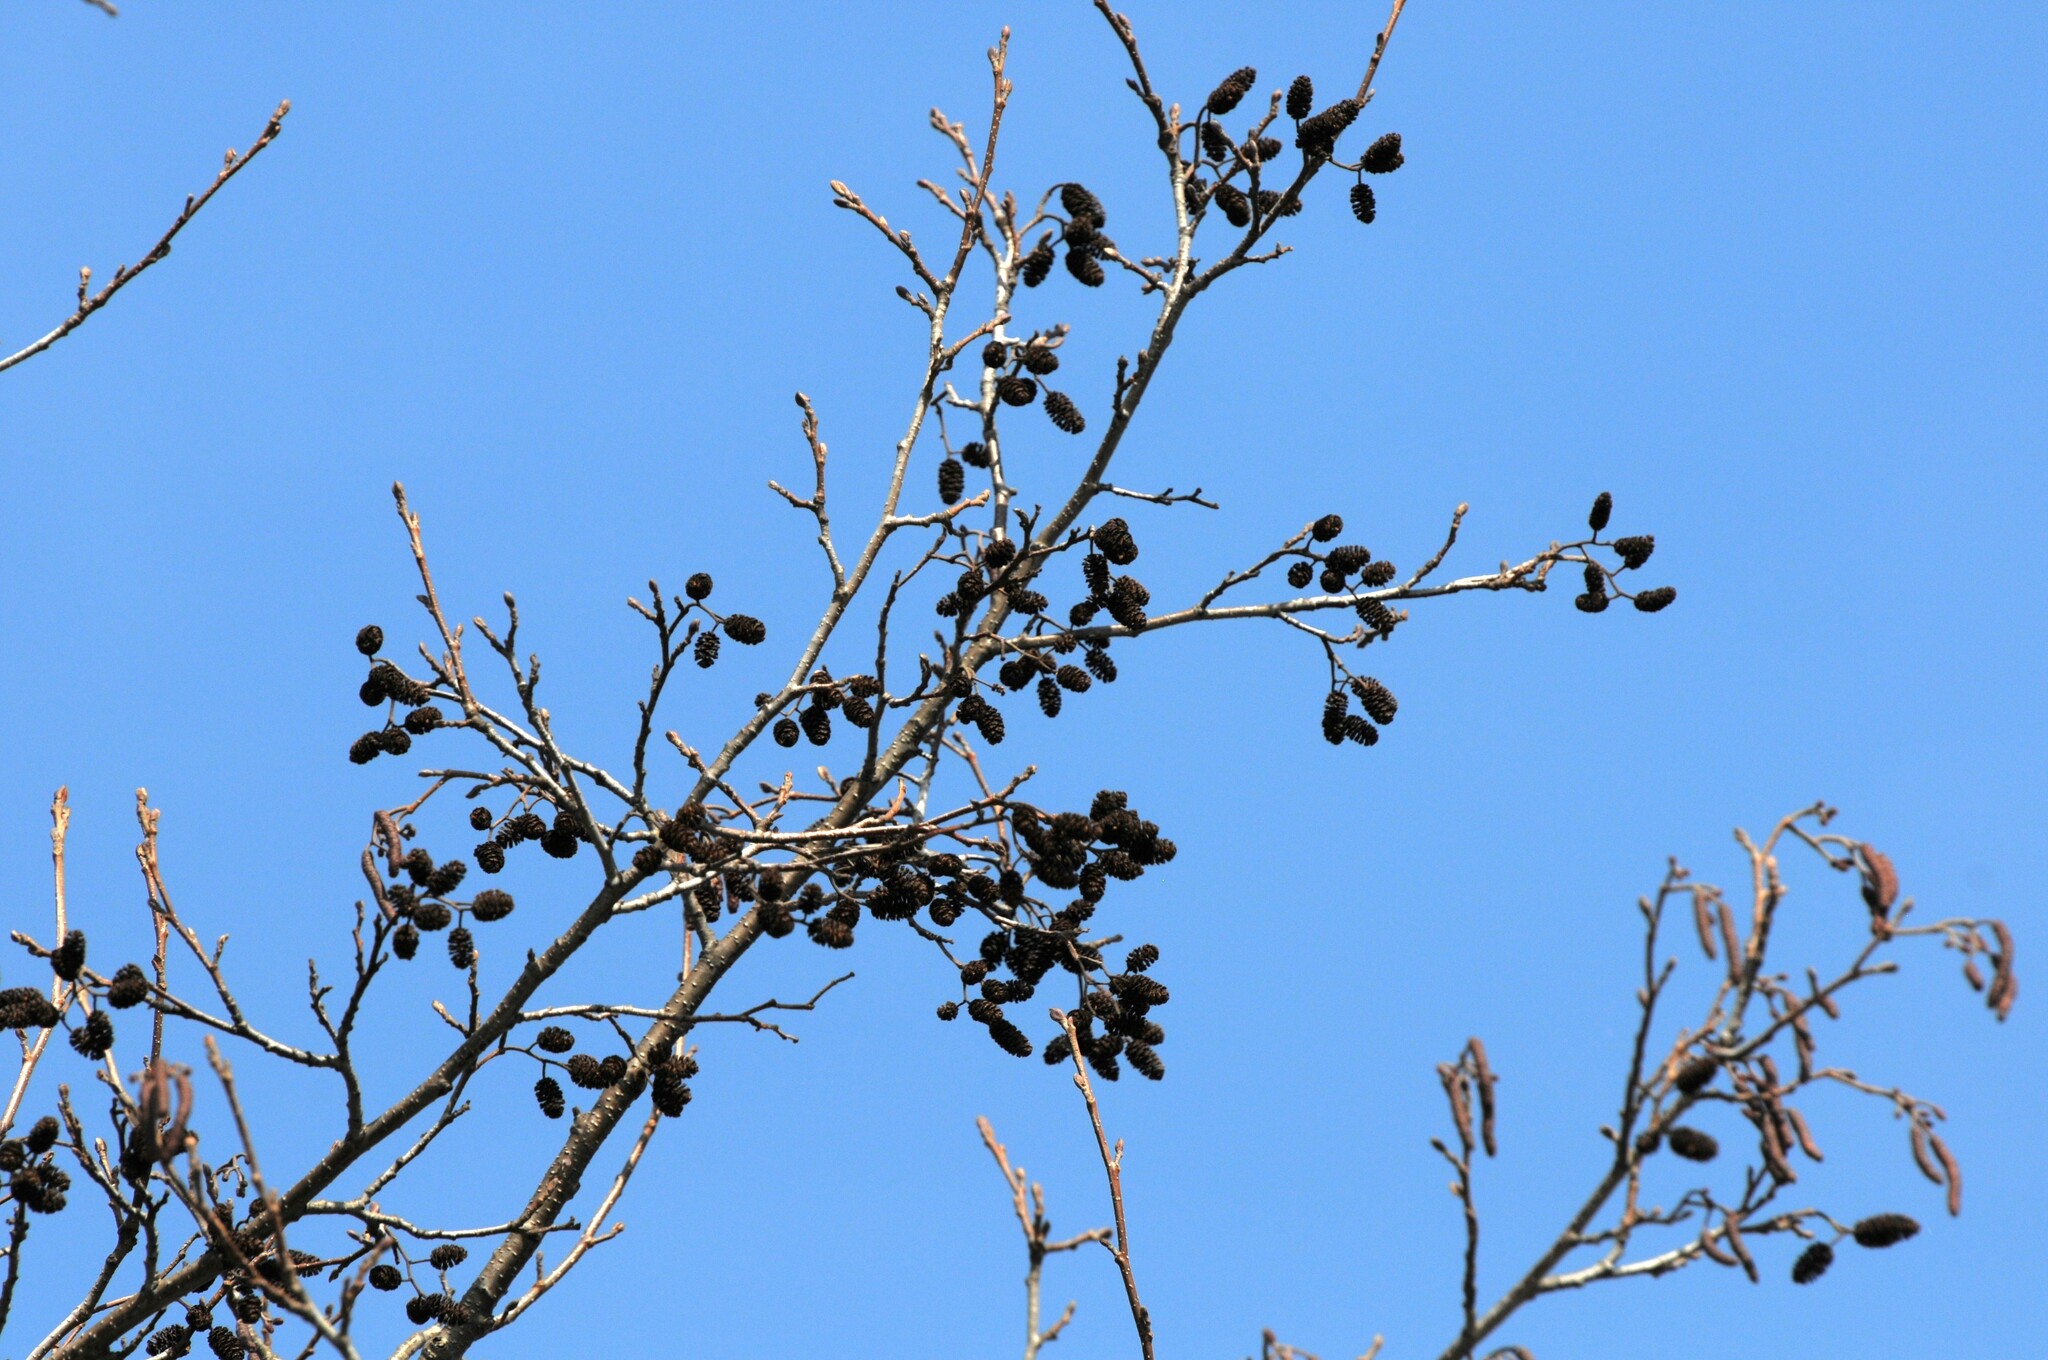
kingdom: Plantae
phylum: Tracheophyta
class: Magnoliopsida
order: Fagales
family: Betulaceae
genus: Alnus
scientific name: Alnus glutinosa
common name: Black alder
